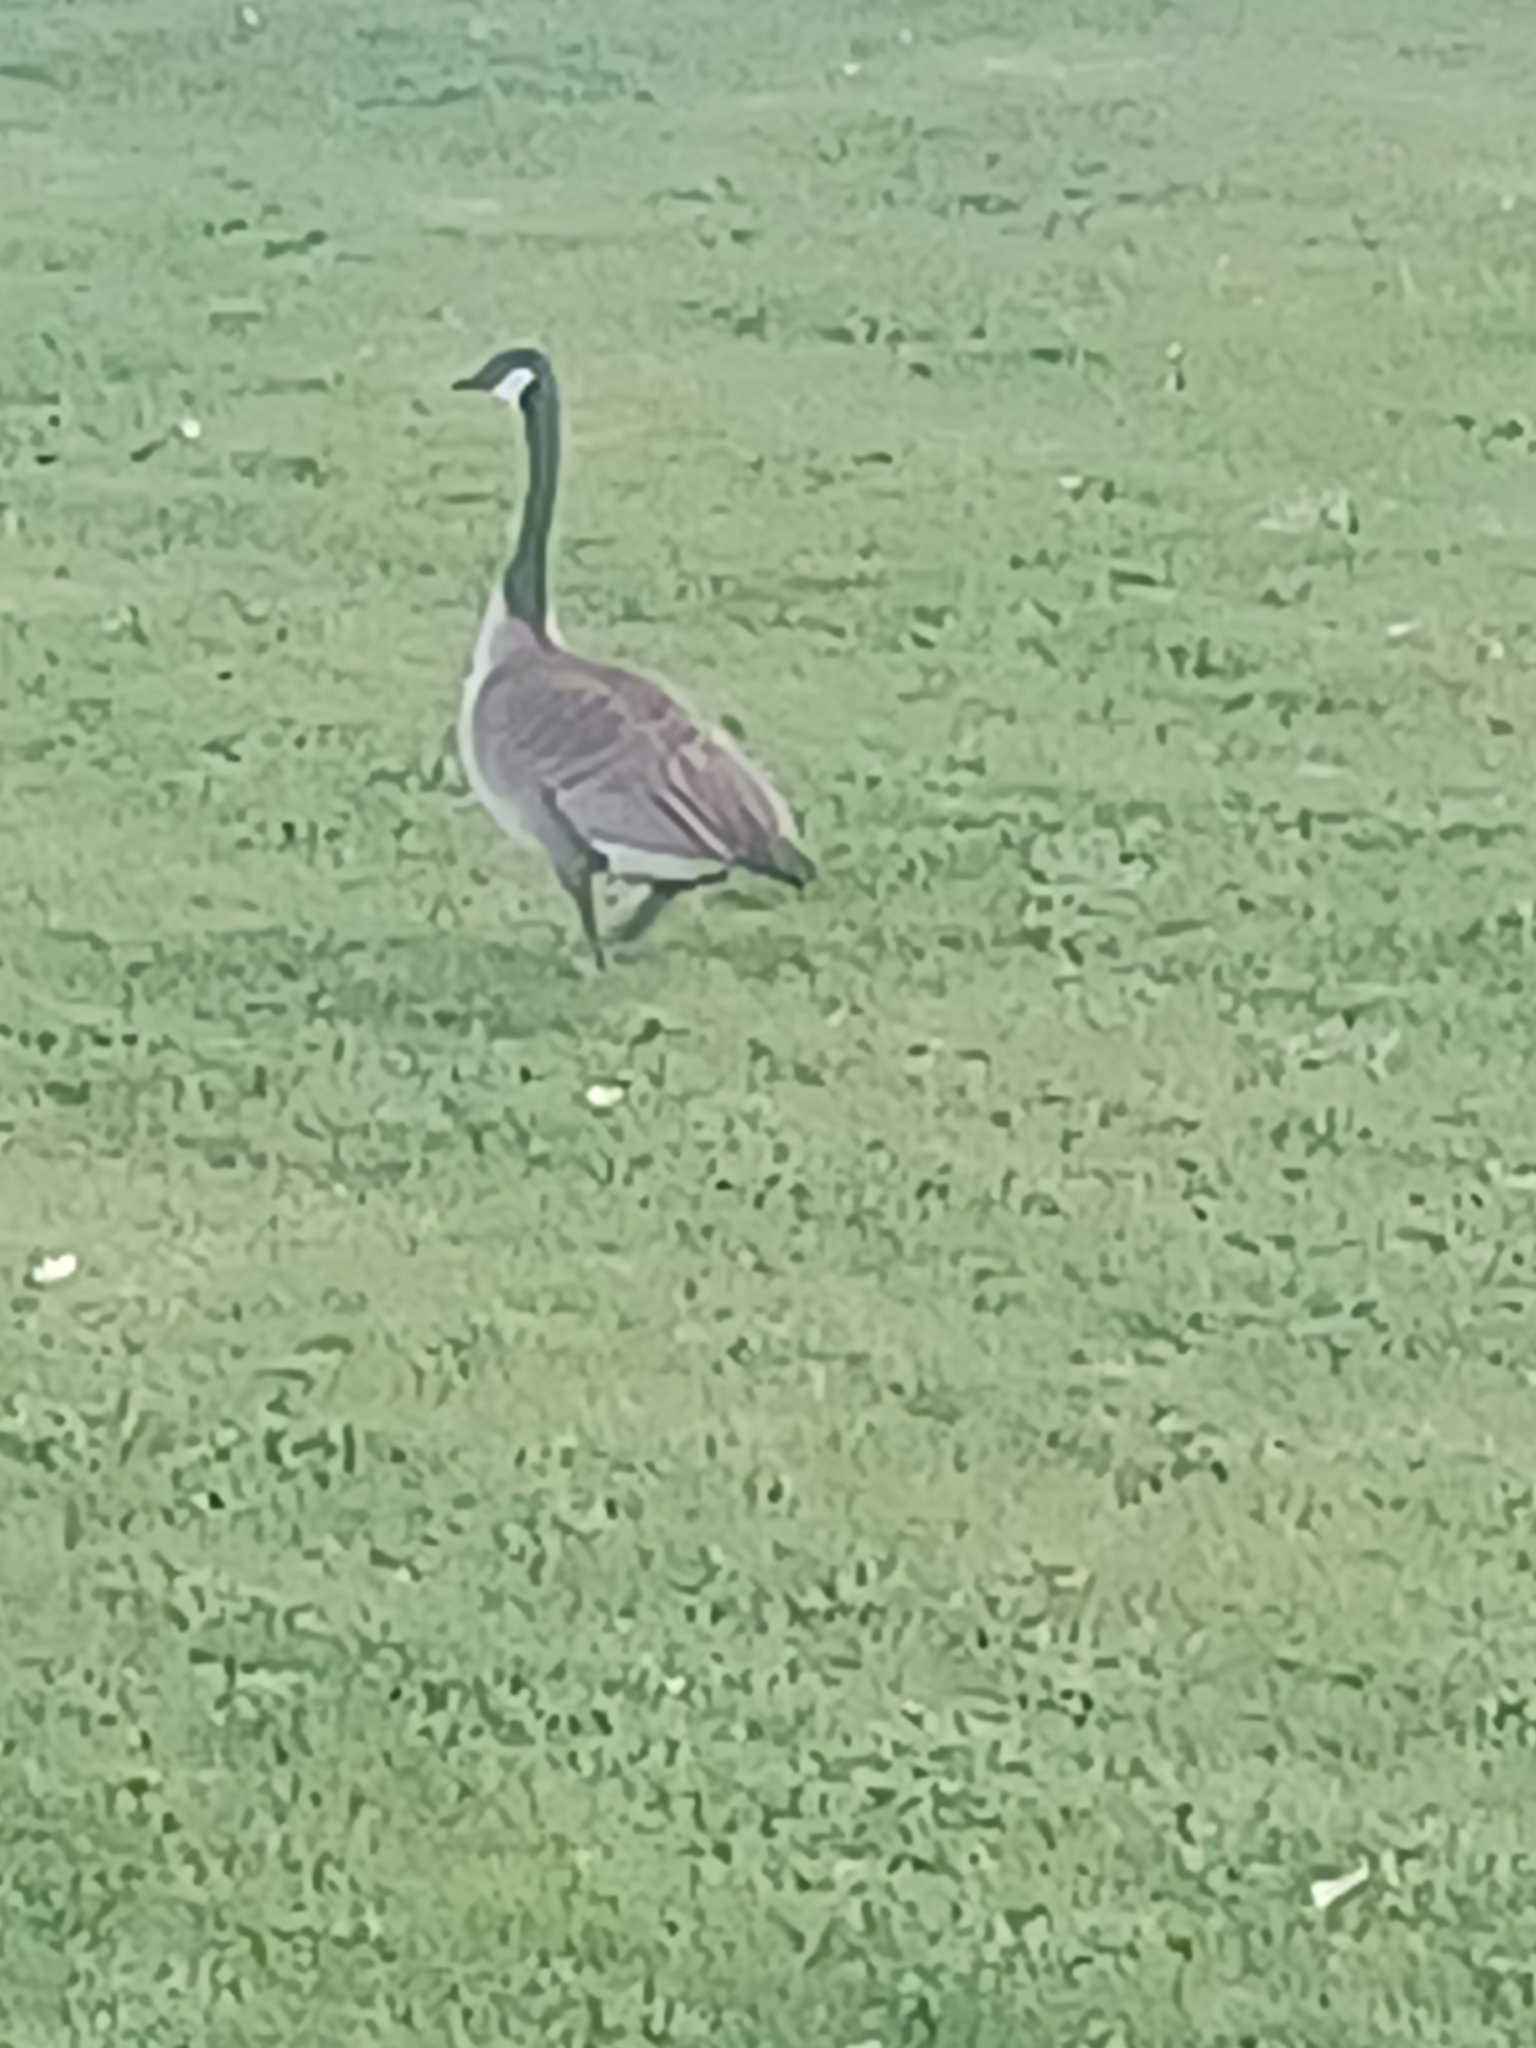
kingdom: Animalia
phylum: Chordata
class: Aves
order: Anseriformes
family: Anatidae
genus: Branta
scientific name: Branta canadensis
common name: Canada goose
